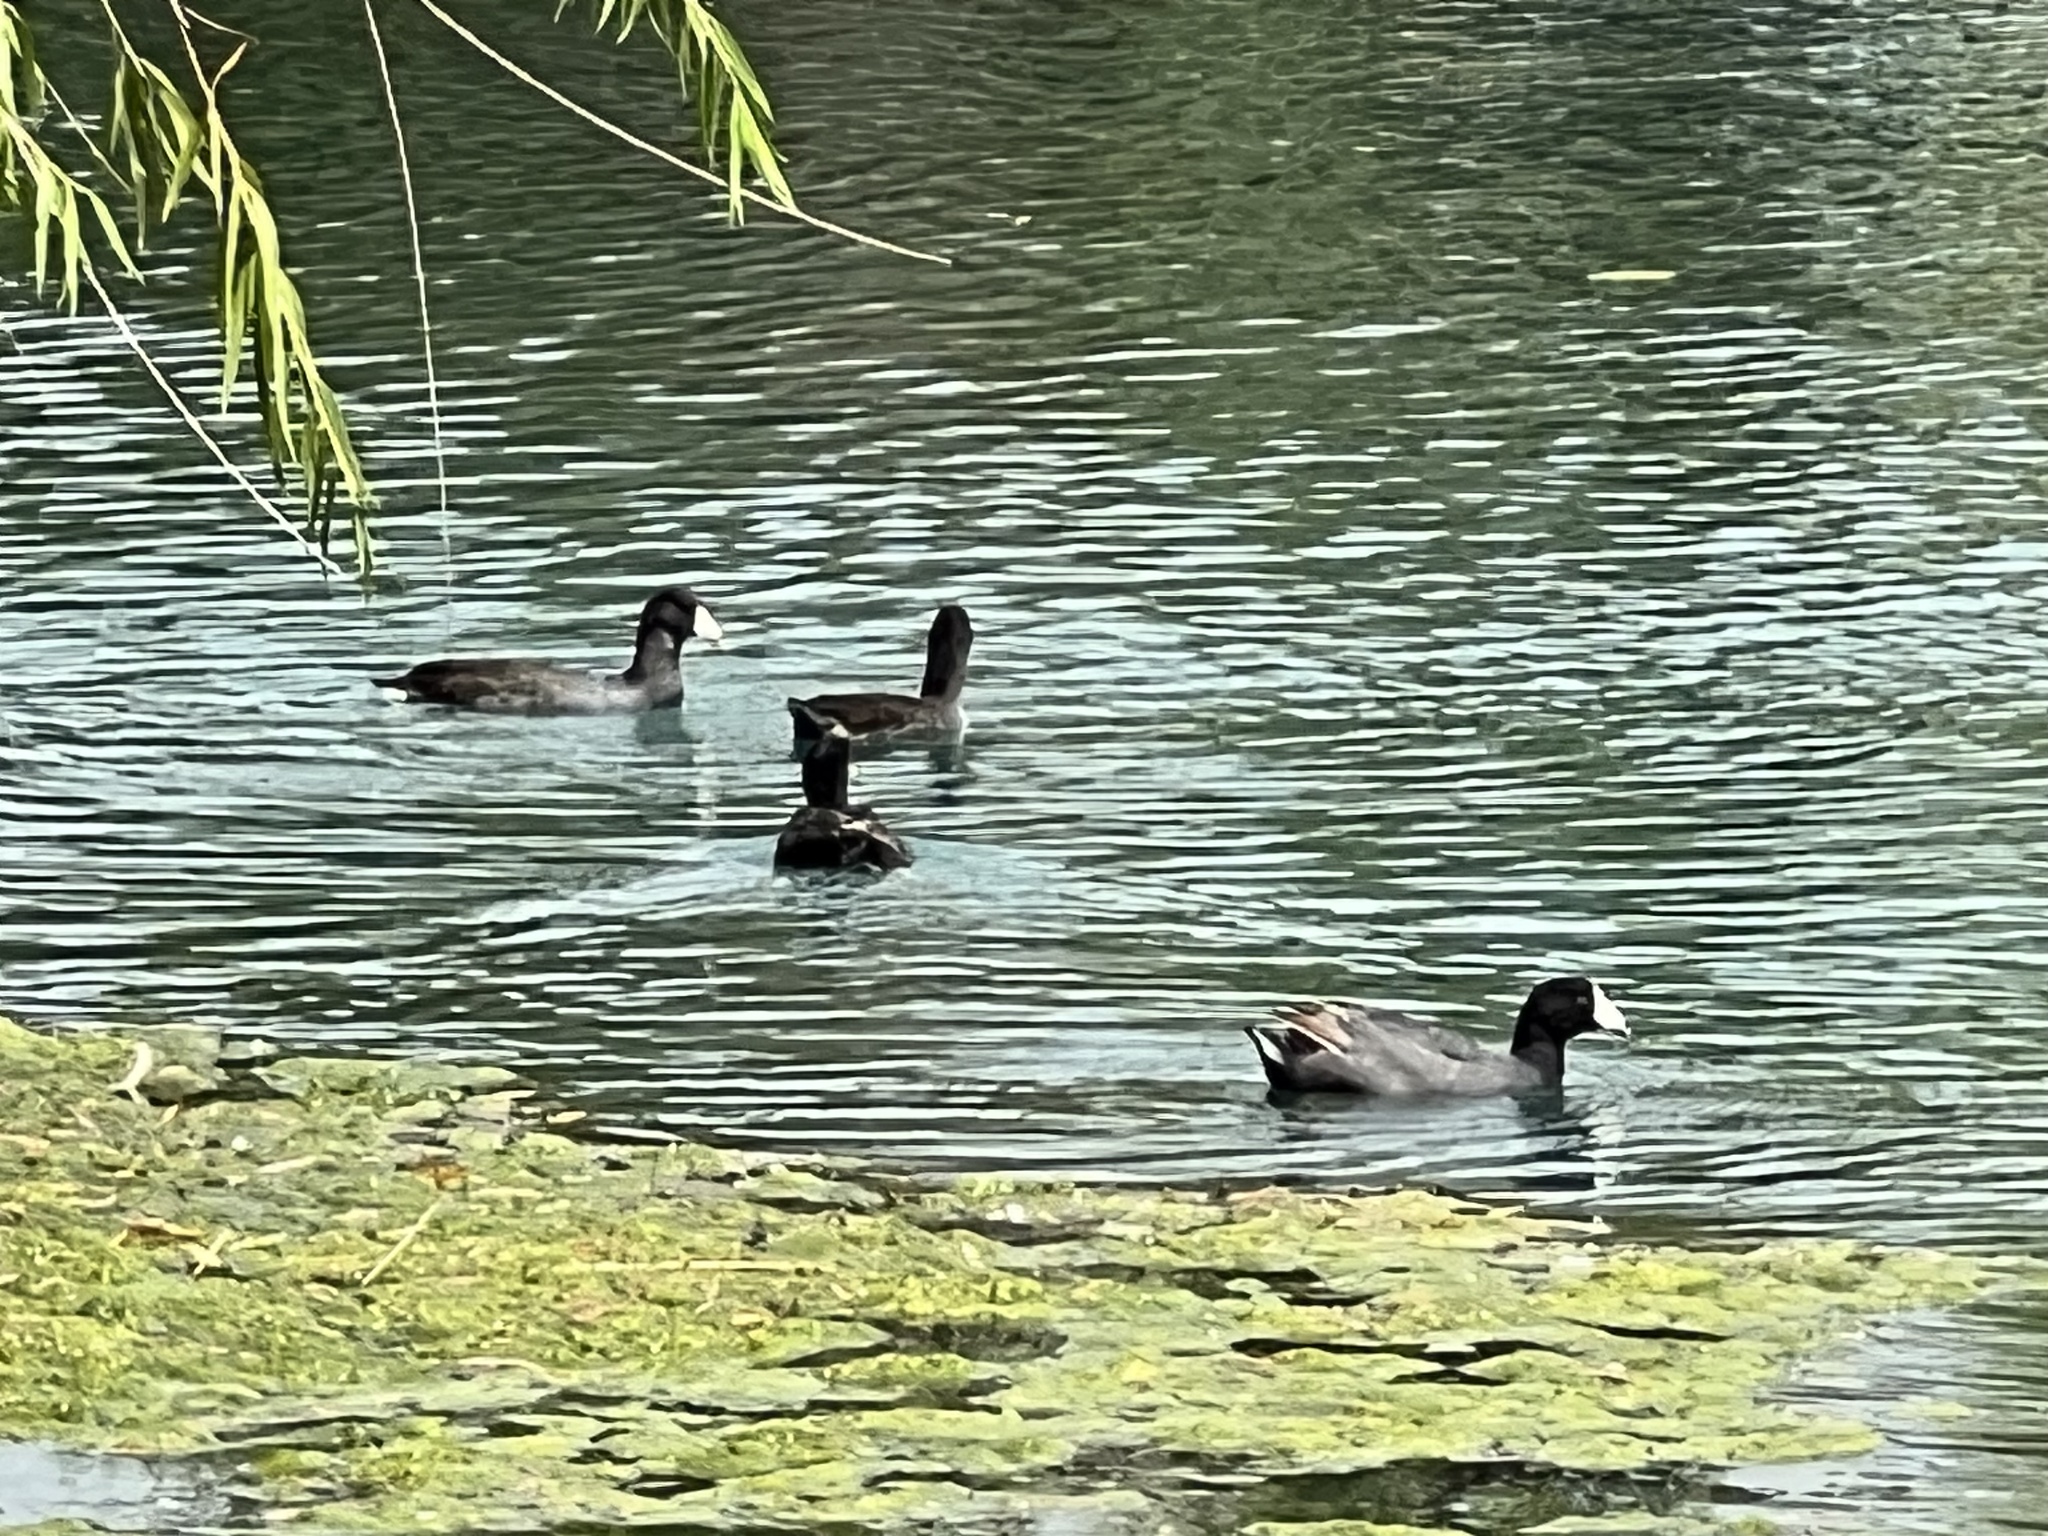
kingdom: Animalia
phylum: Chordata
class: Aves
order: Gruiformes
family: Rallidae
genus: Fulica
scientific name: Fulica americana
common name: American coot
